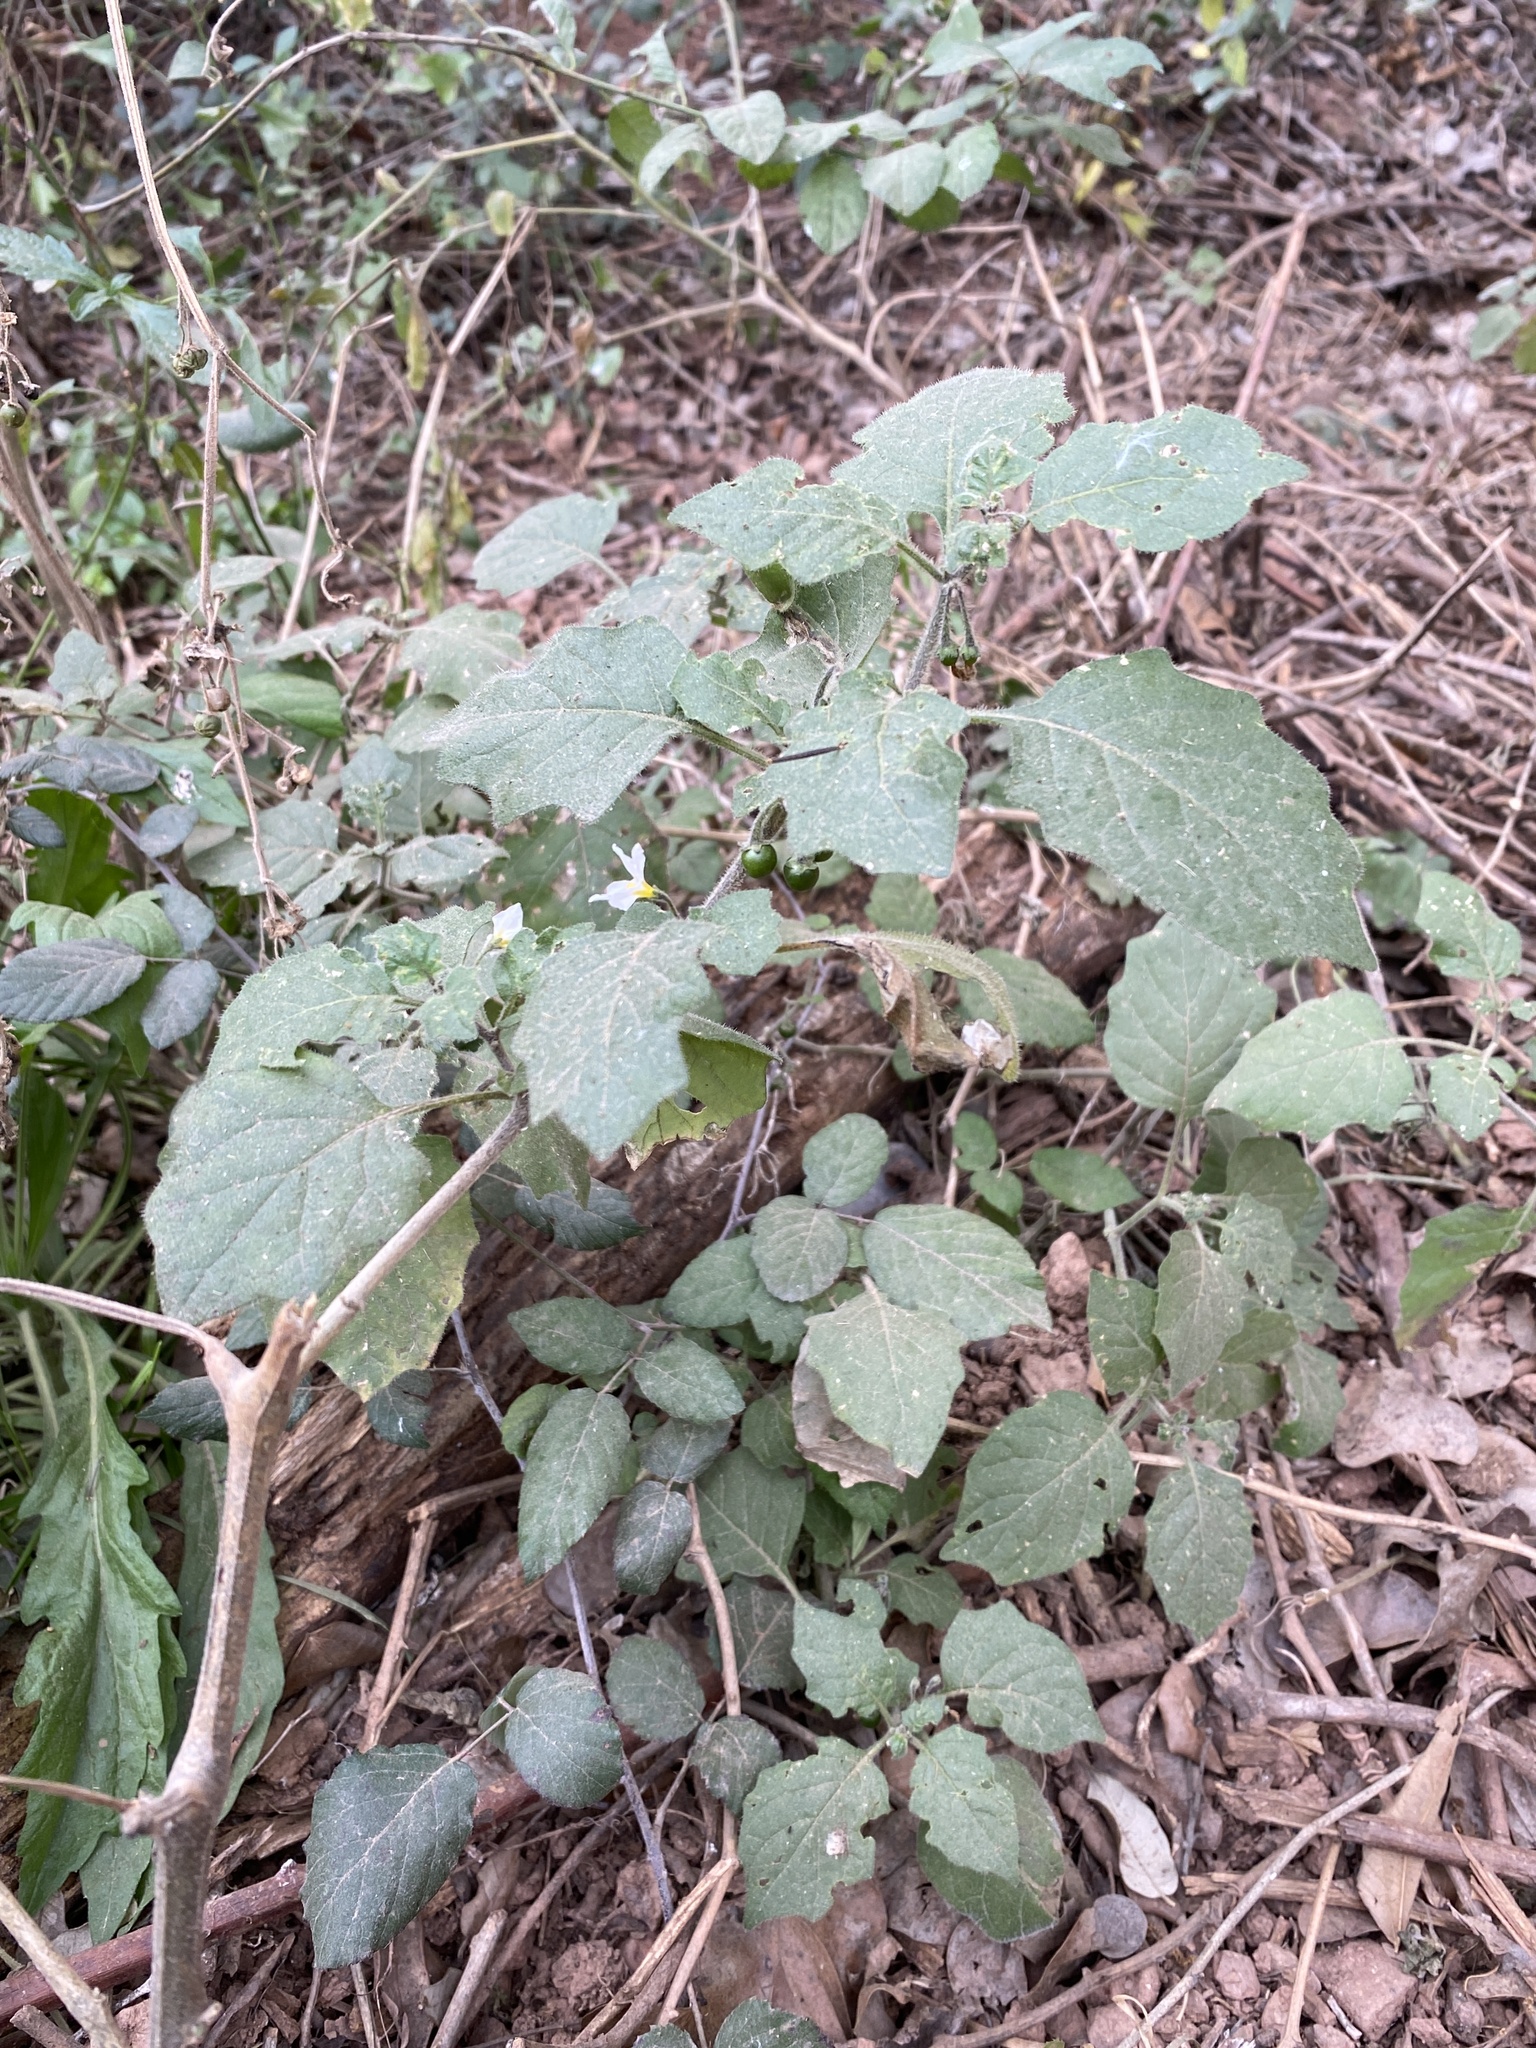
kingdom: Plantae
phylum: Tracheophyta
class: Magnoliopsida
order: Solanales
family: Solanaceae
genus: Solanum
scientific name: Solanum villosum
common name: Red nightshade
